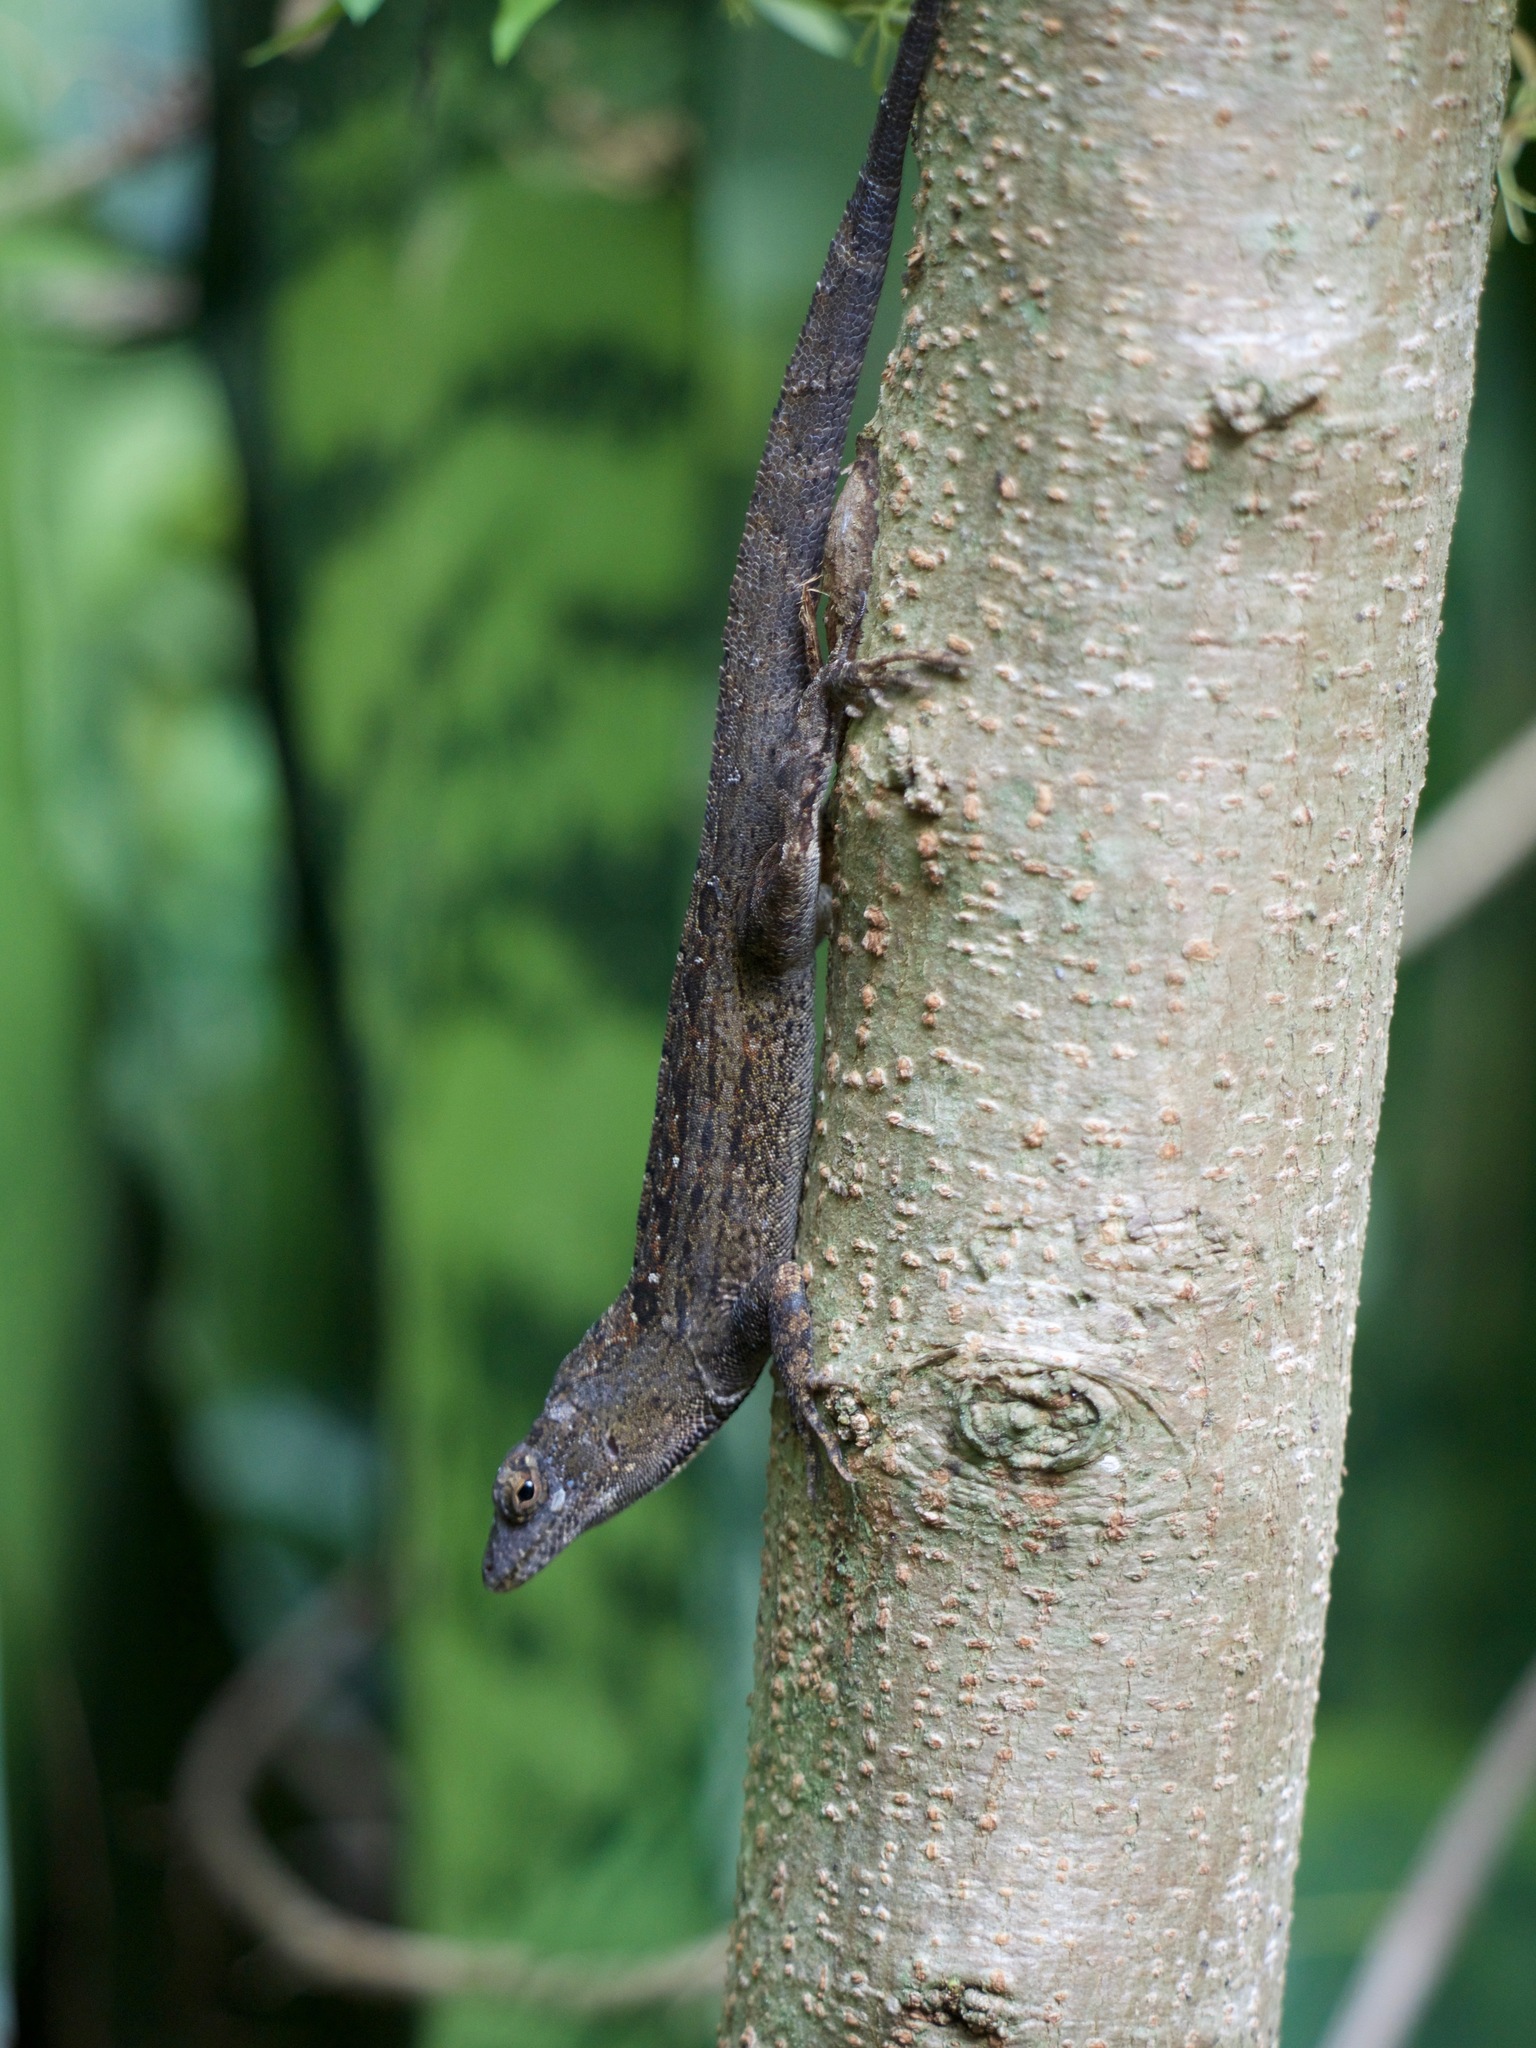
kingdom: Animalia
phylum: Chordata
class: Squamata
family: Dactyloidae
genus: Anolis
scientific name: Anolis sagrei
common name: Brown anole
